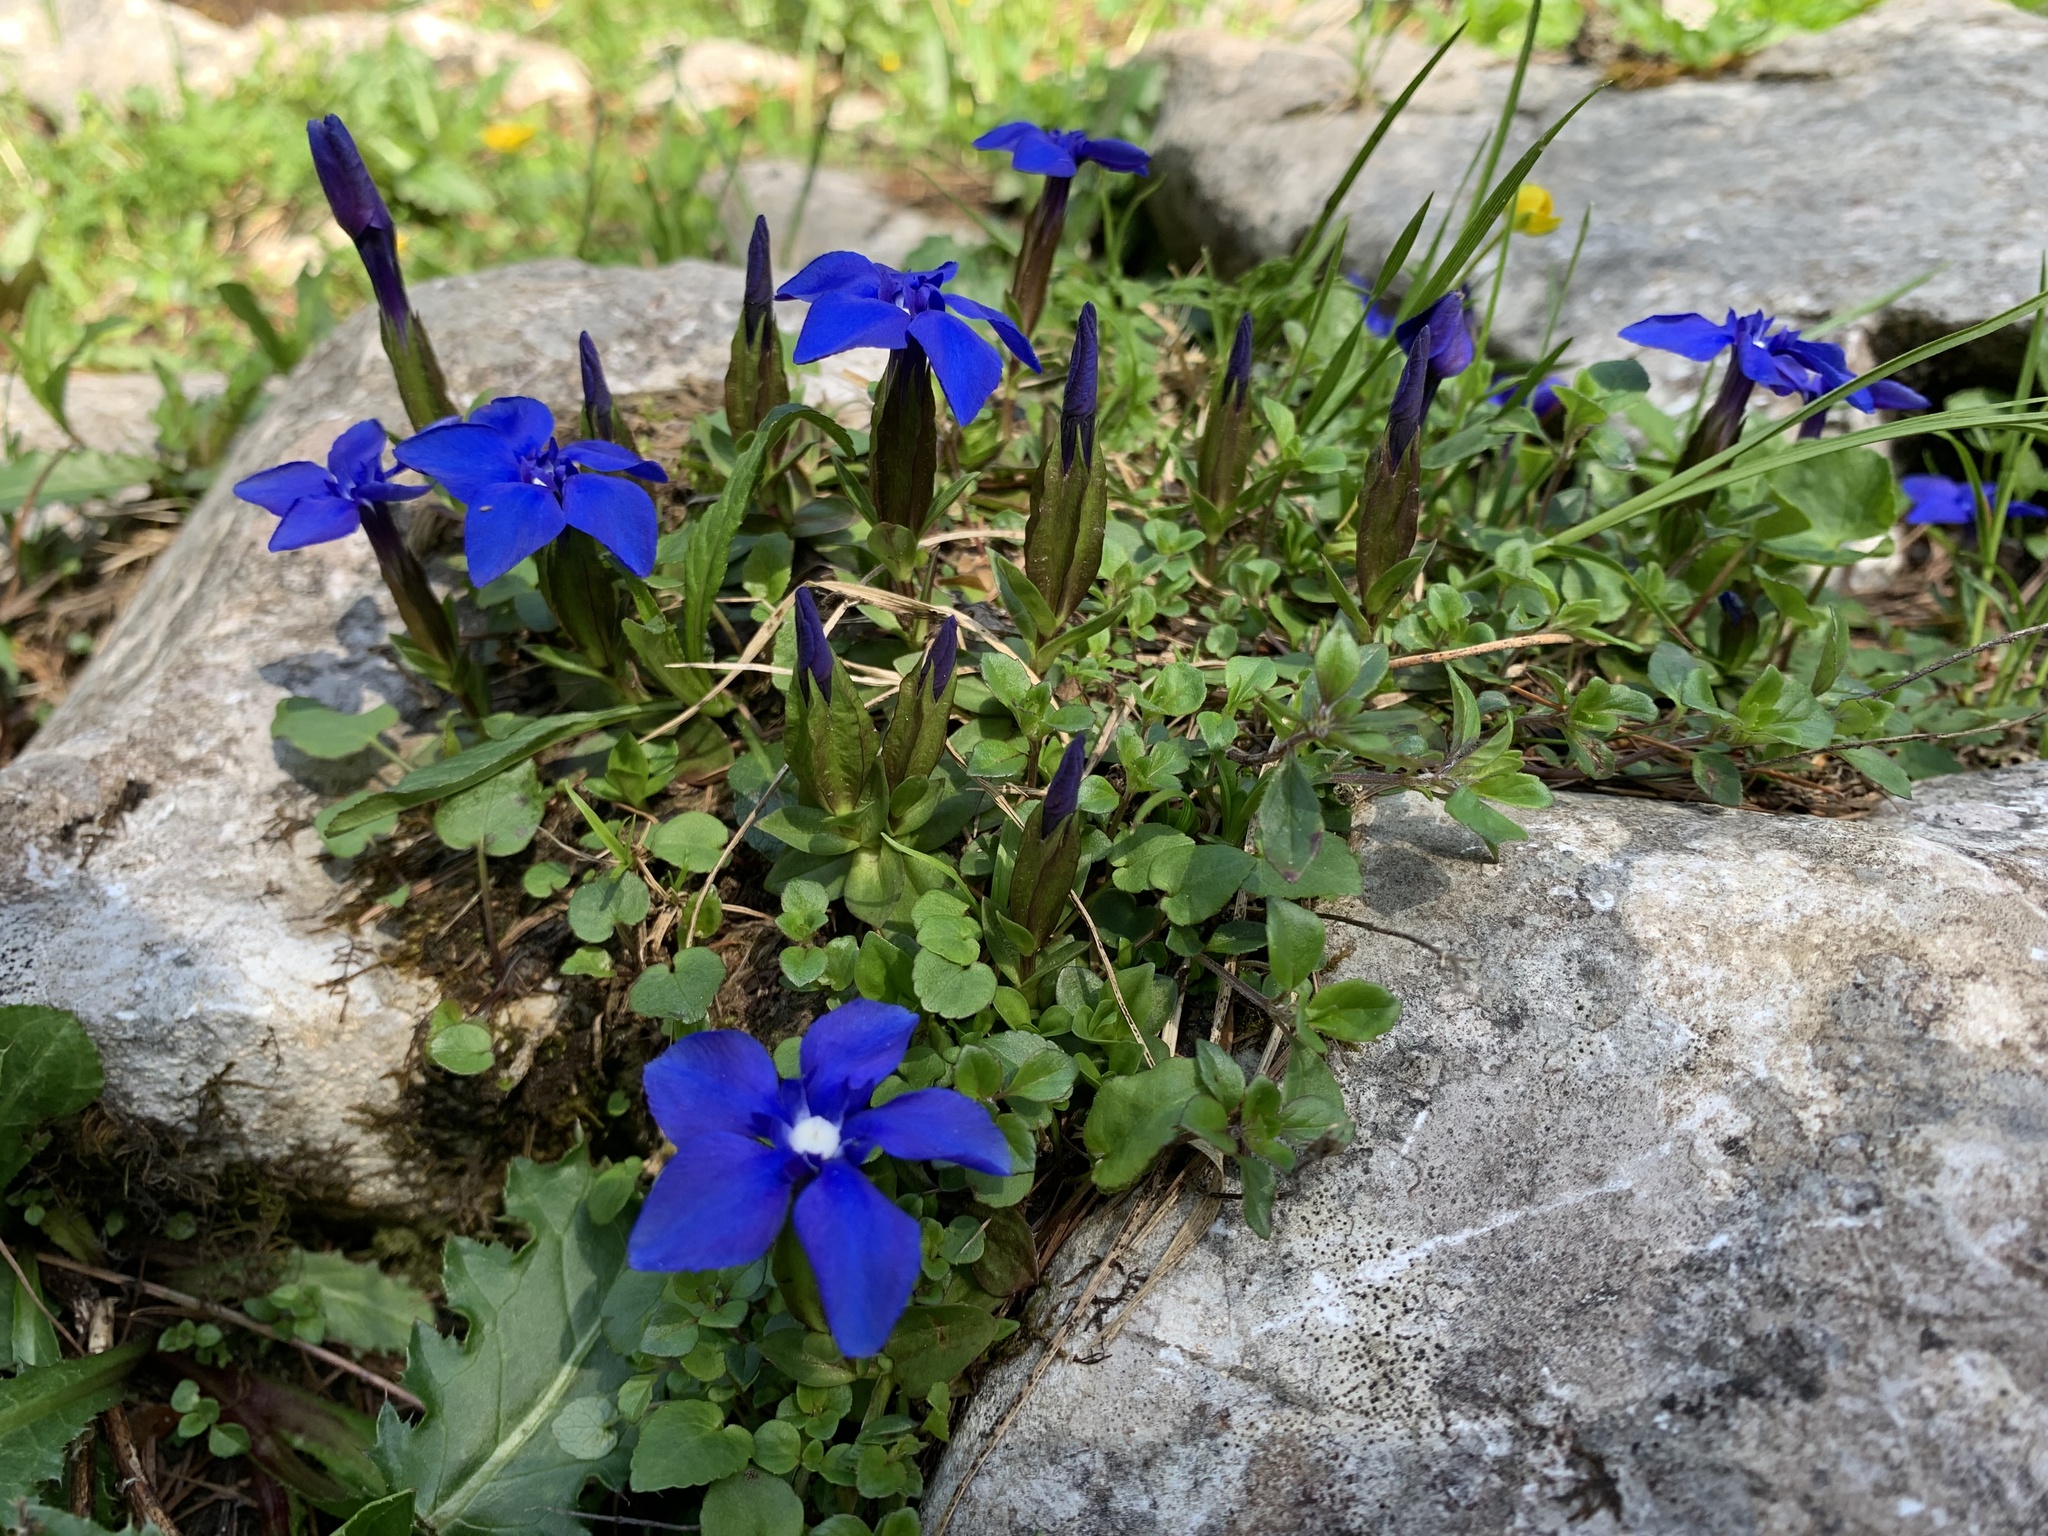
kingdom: Plantae
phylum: Tracheophyta
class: Magnoliopsida
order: Gentianales
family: Gentianaceae
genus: Gentiana
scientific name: Gentiana verna
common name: Spring gentian
